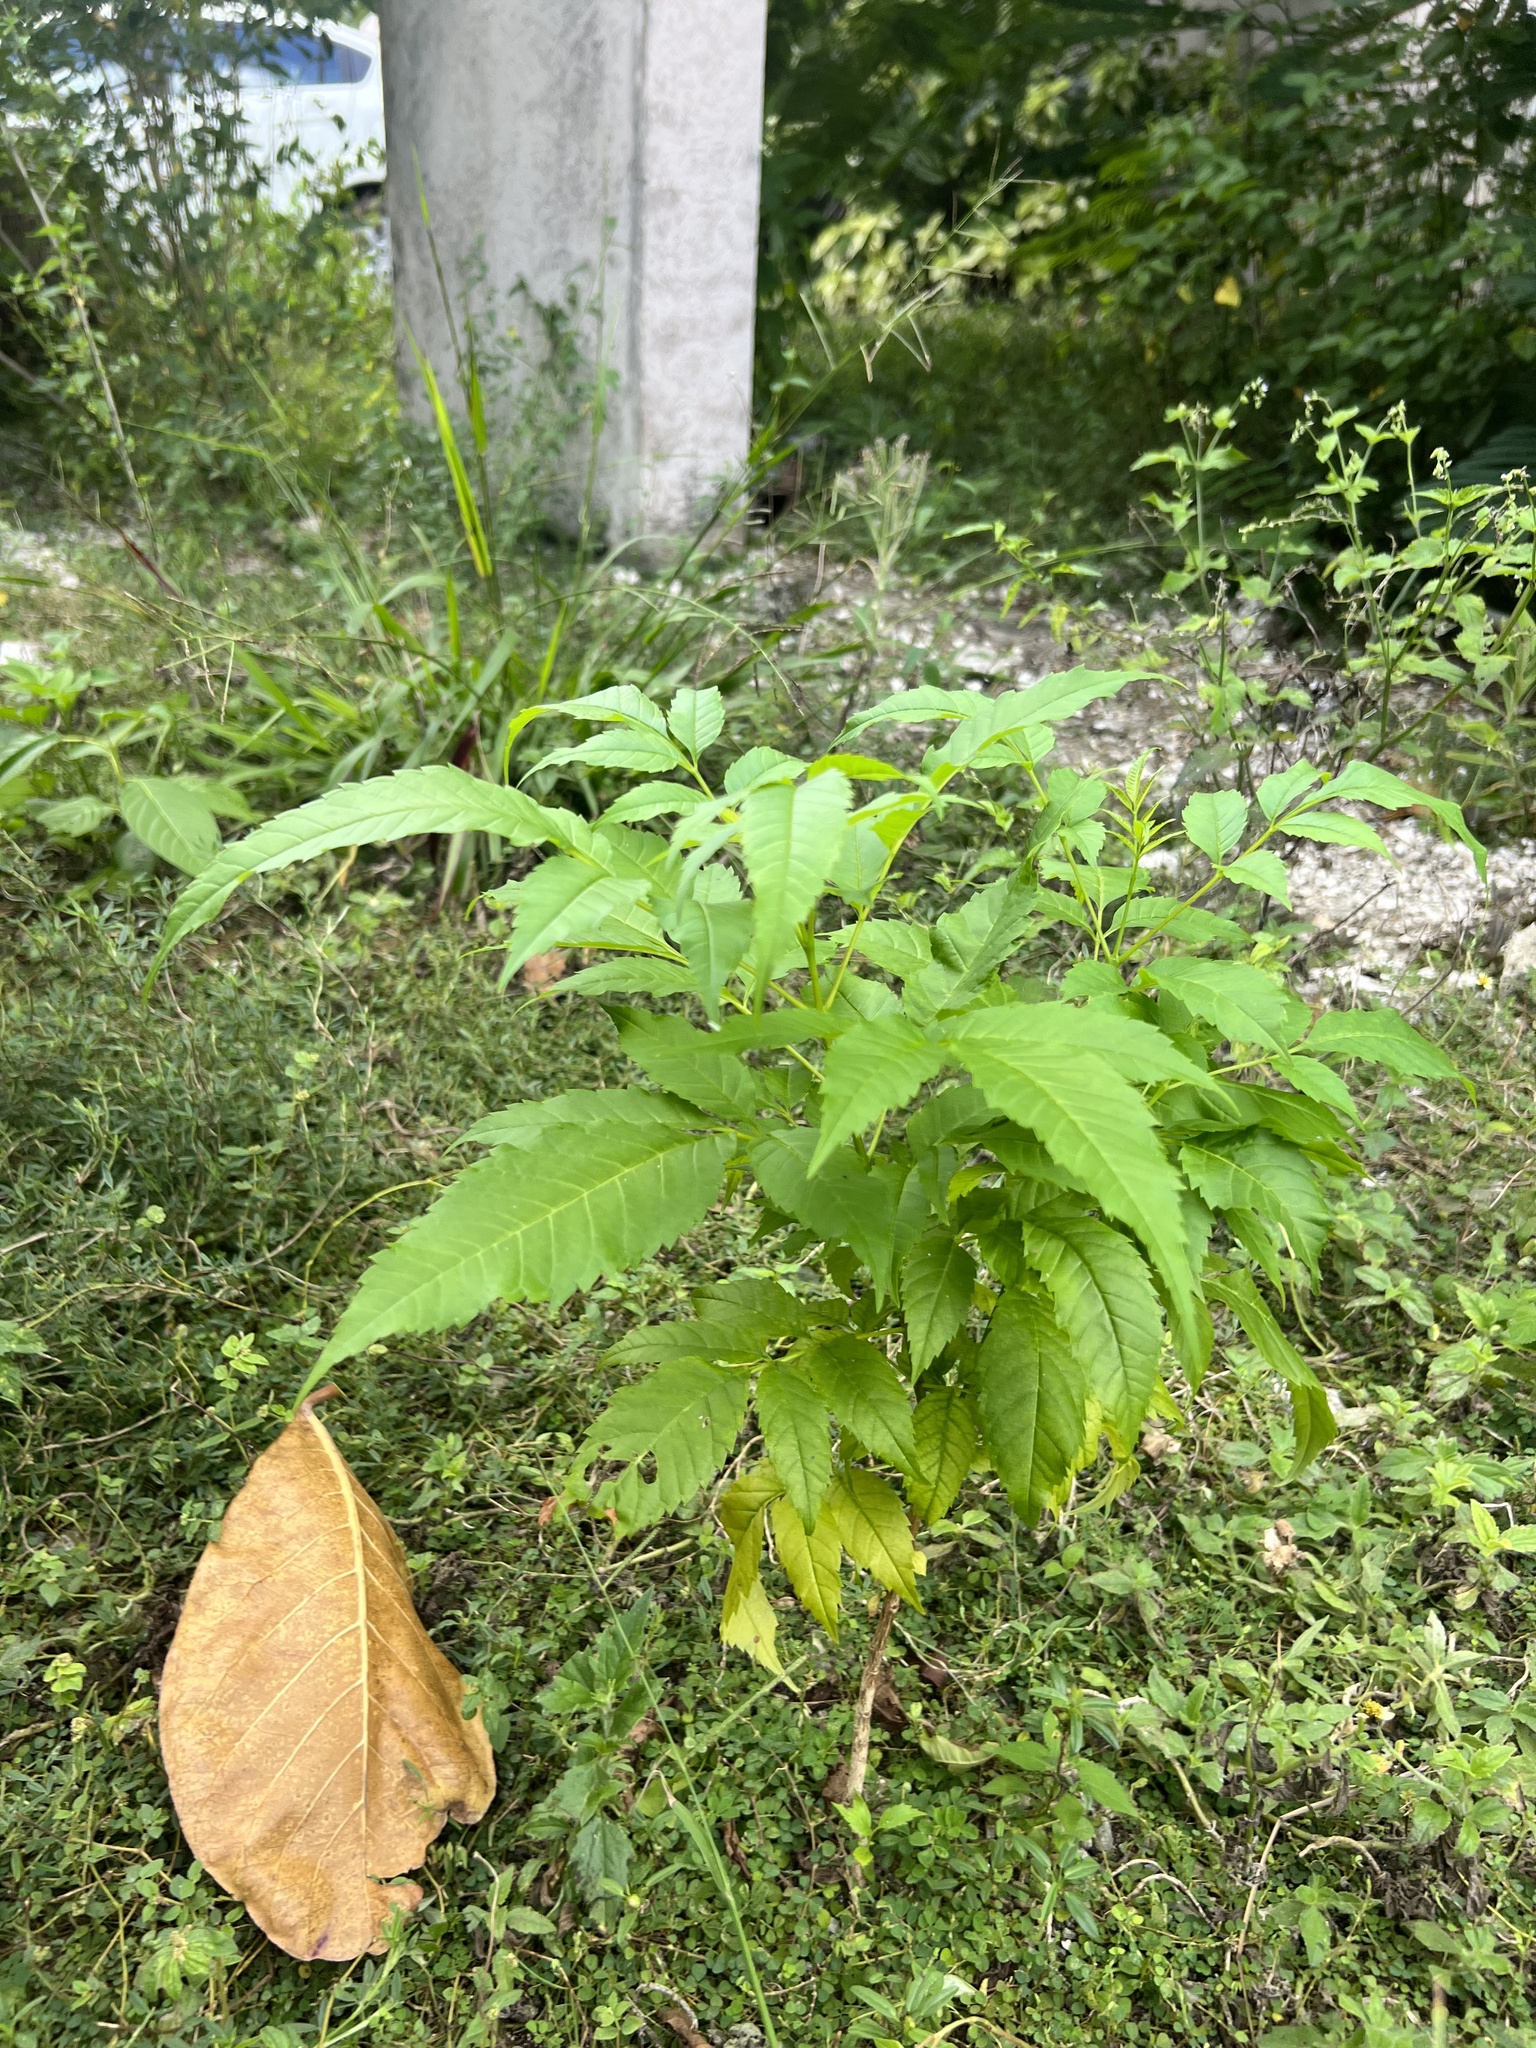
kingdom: Plantae
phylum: Tracheophyta
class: Magnoliopsida
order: Lamiales
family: Bignoniaceae
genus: Tecoma
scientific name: Tecoma stans
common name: Yellow trumpetbush
